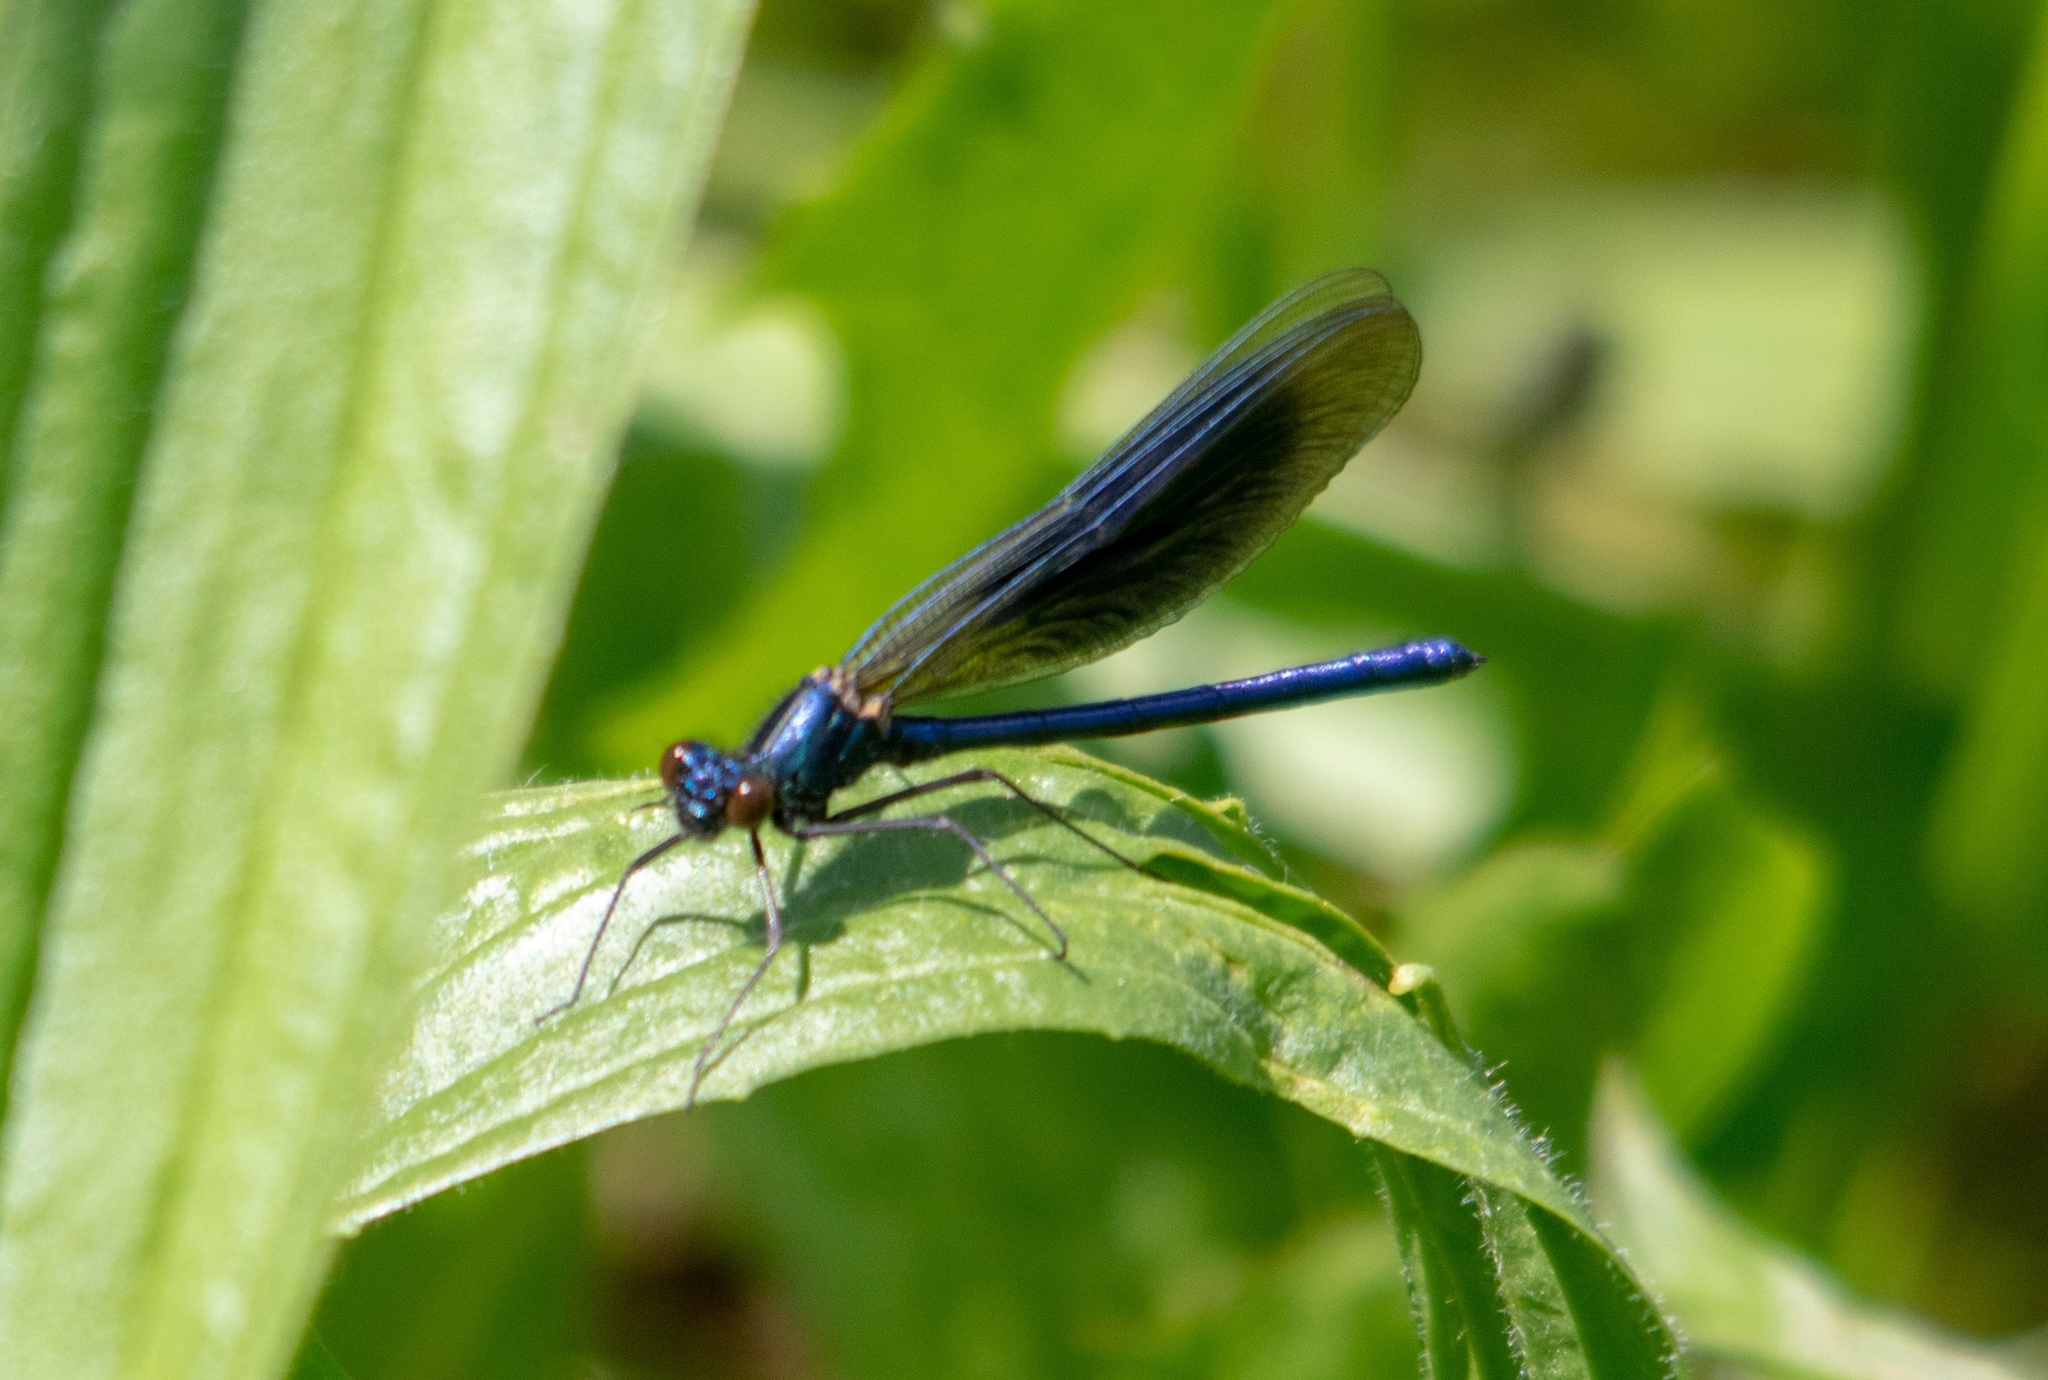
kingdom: Animalia
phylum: Arthropoda
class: Insecta
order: Odonata
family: Calopterygidae
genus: Calopteryx
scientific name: Calopteryx splendens
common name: Banded demoiselle
